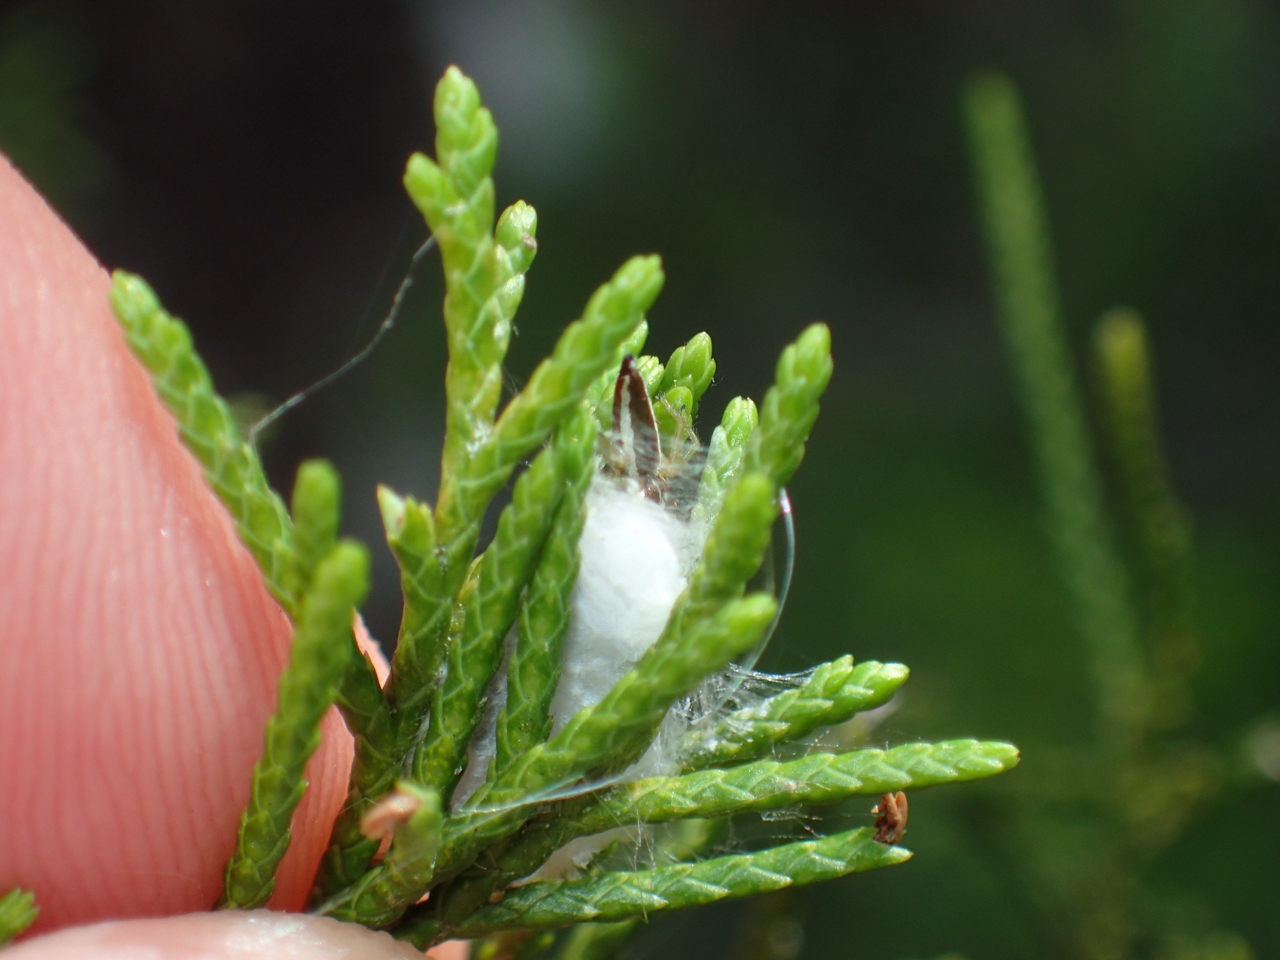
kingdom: Animalia
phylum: Arthropoda
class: Arachnida
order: Araneae
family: Salticidae
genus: Hentzia
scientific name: Hentzia palmarum
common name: Common hentz jumping spider
